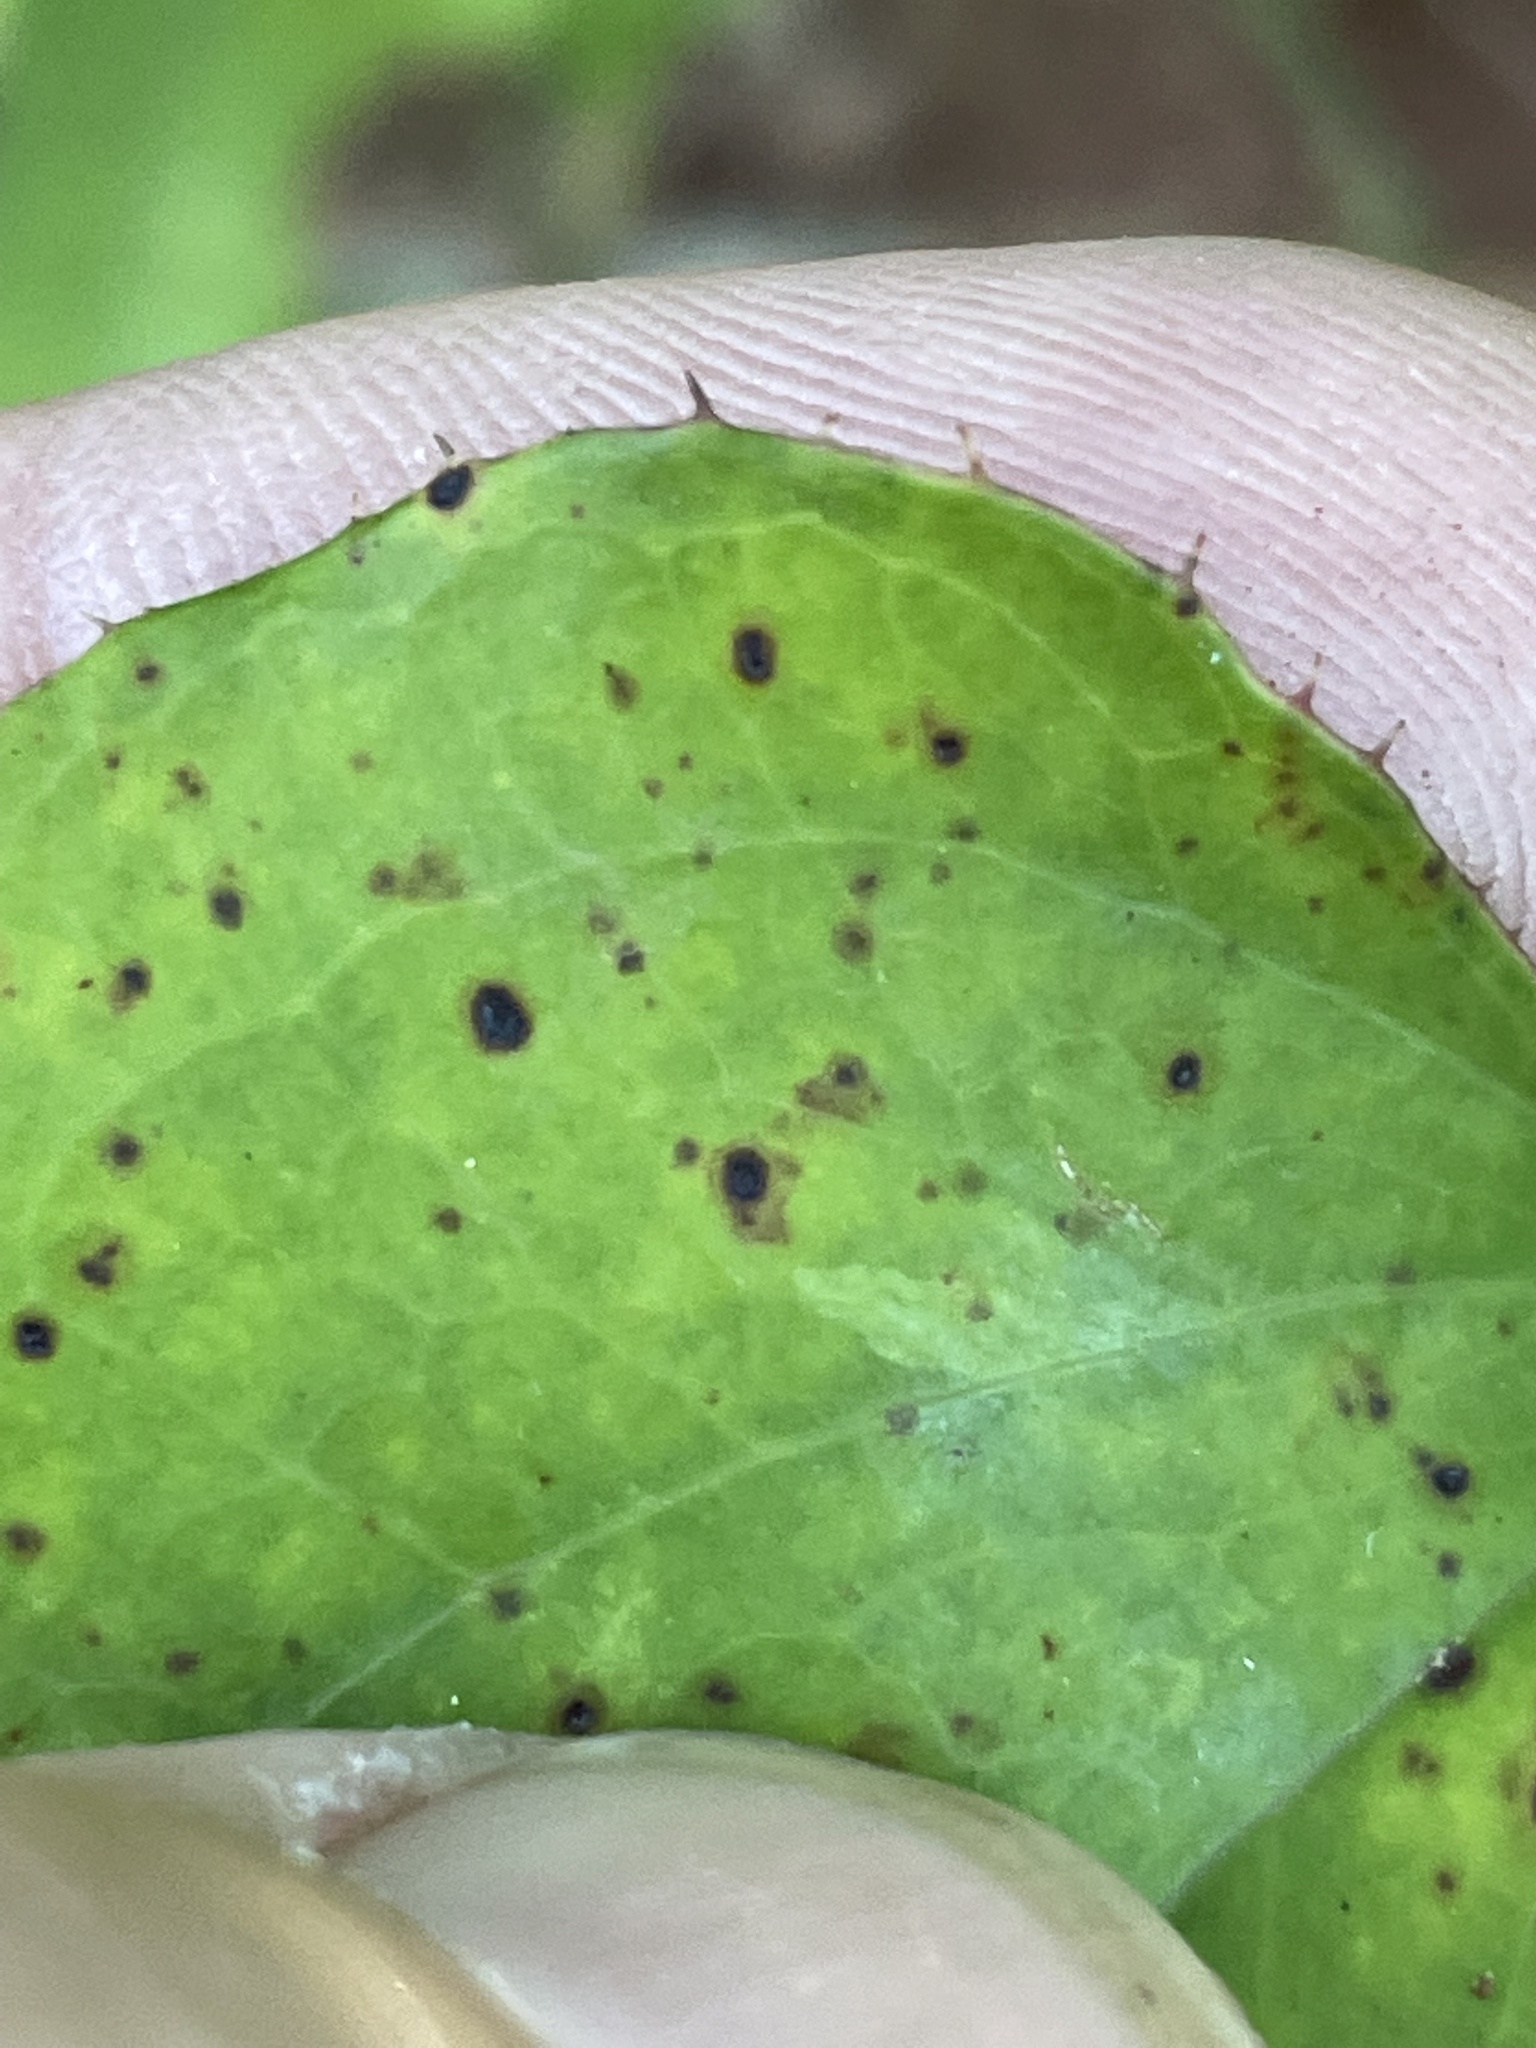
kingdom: Plantae
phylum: Tracheophyta
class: Liliopsida
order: Liliales
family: Smilacaceae
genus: Smilax
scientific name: Smilax bona-nox
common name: Catbrier
